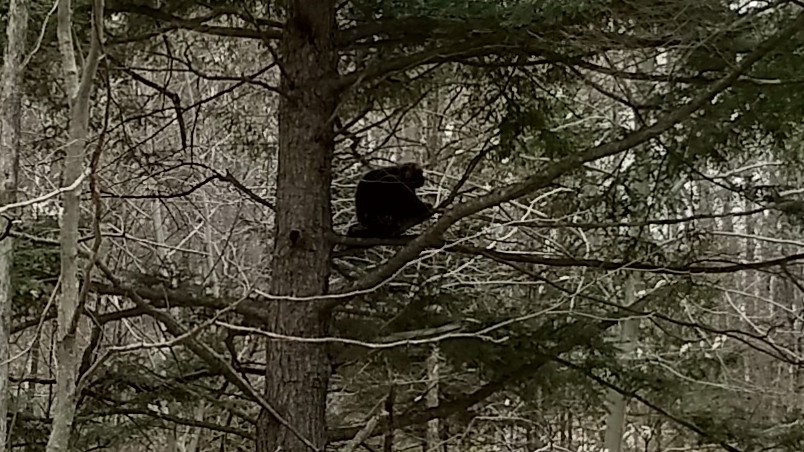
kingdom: Animalia
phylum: Chordata
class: Mammalia
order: Rodentia
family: Erethizontidae
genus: Erethizon
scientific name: Erethizon dorsatus
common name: North american porcupine
